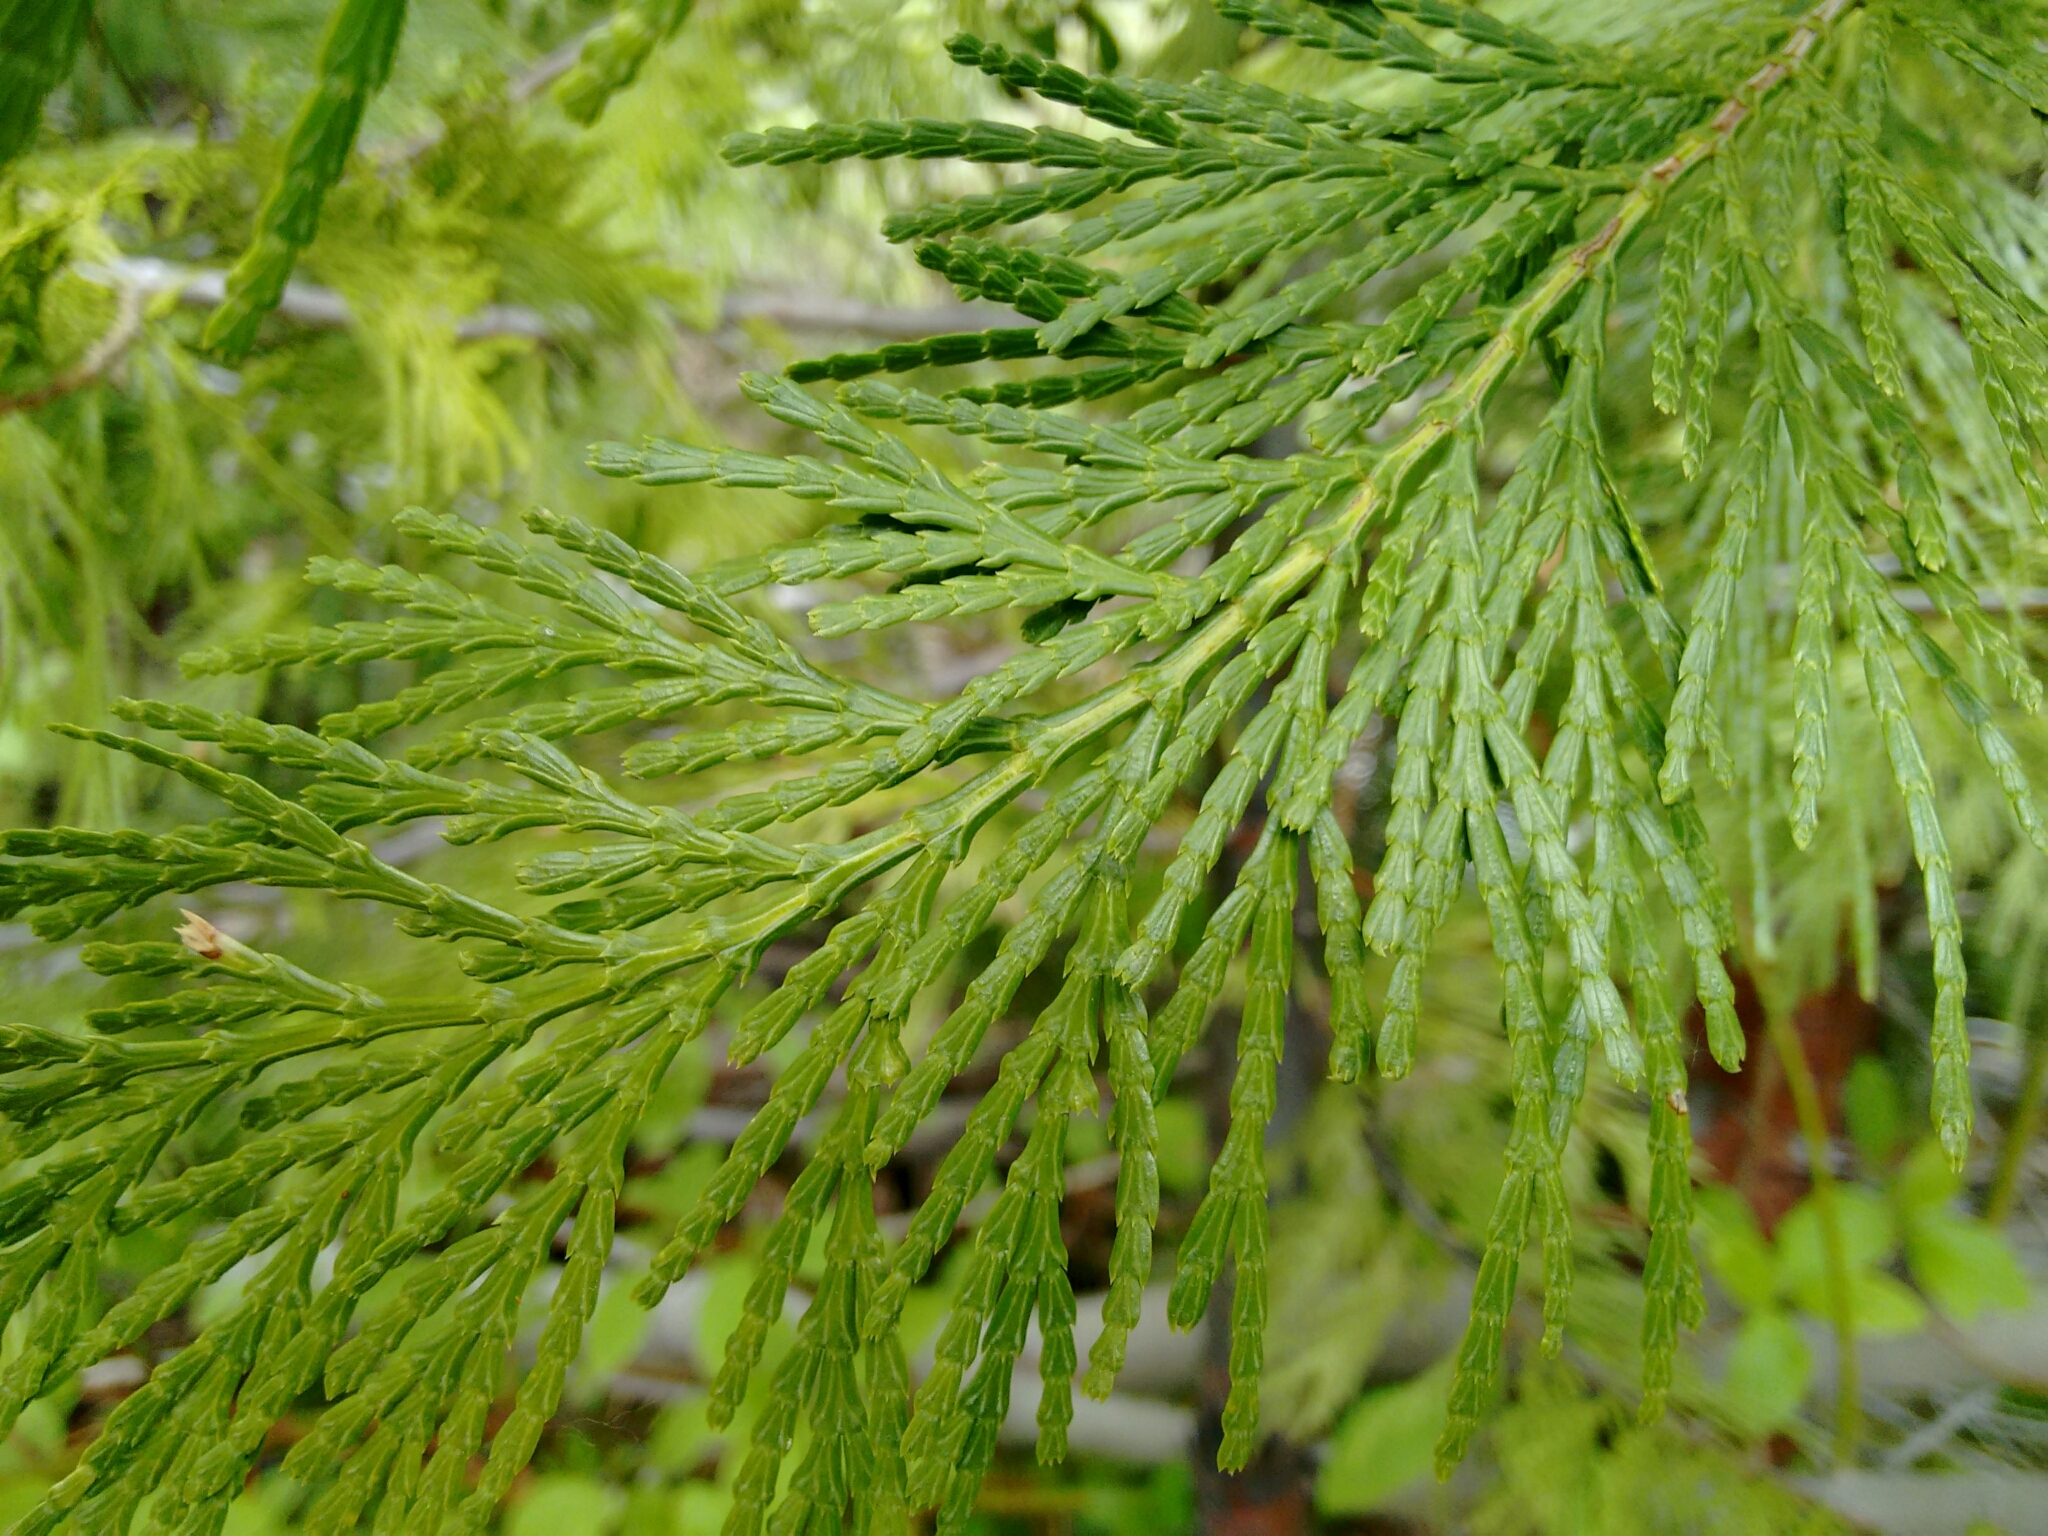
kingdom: Plantae
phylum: Tracheophyta
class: Pinopsida
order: Pinales
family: Cupressaceae
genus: Calocedrus
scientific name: Calocedrus decurrens
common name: Californian incense-cedar
